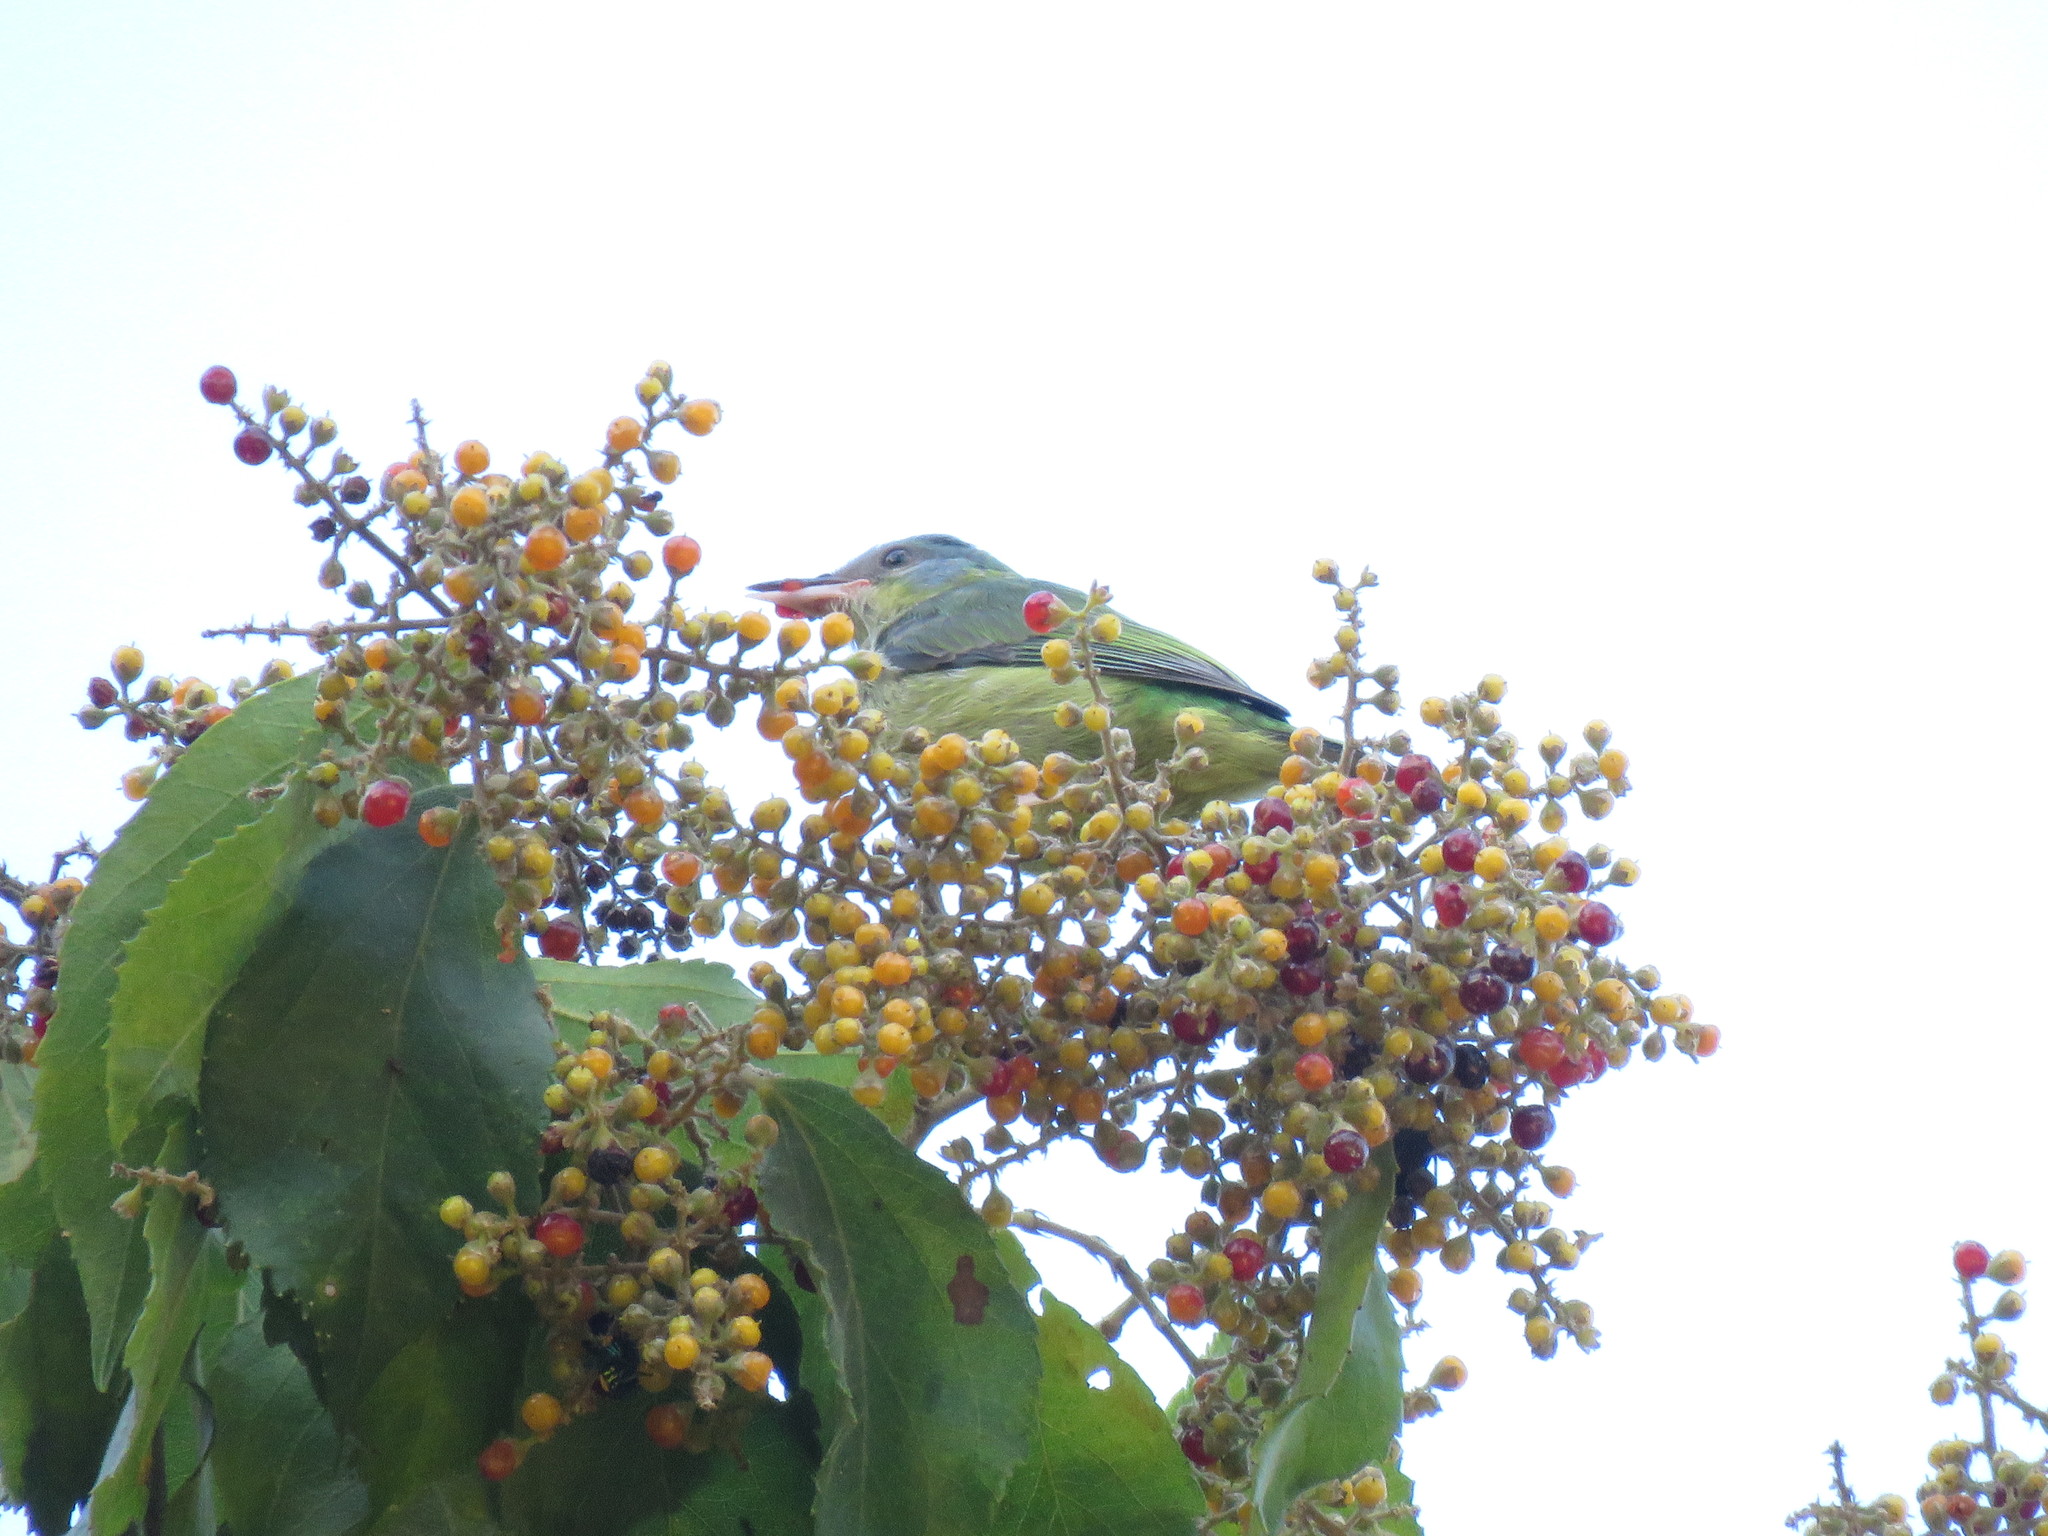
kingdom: Animalia
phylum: Chordata
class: Aves
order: Passeriformes
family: Thraupidae
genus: Dacnis
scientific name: Dacnis cayana
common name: Blue dacnis
